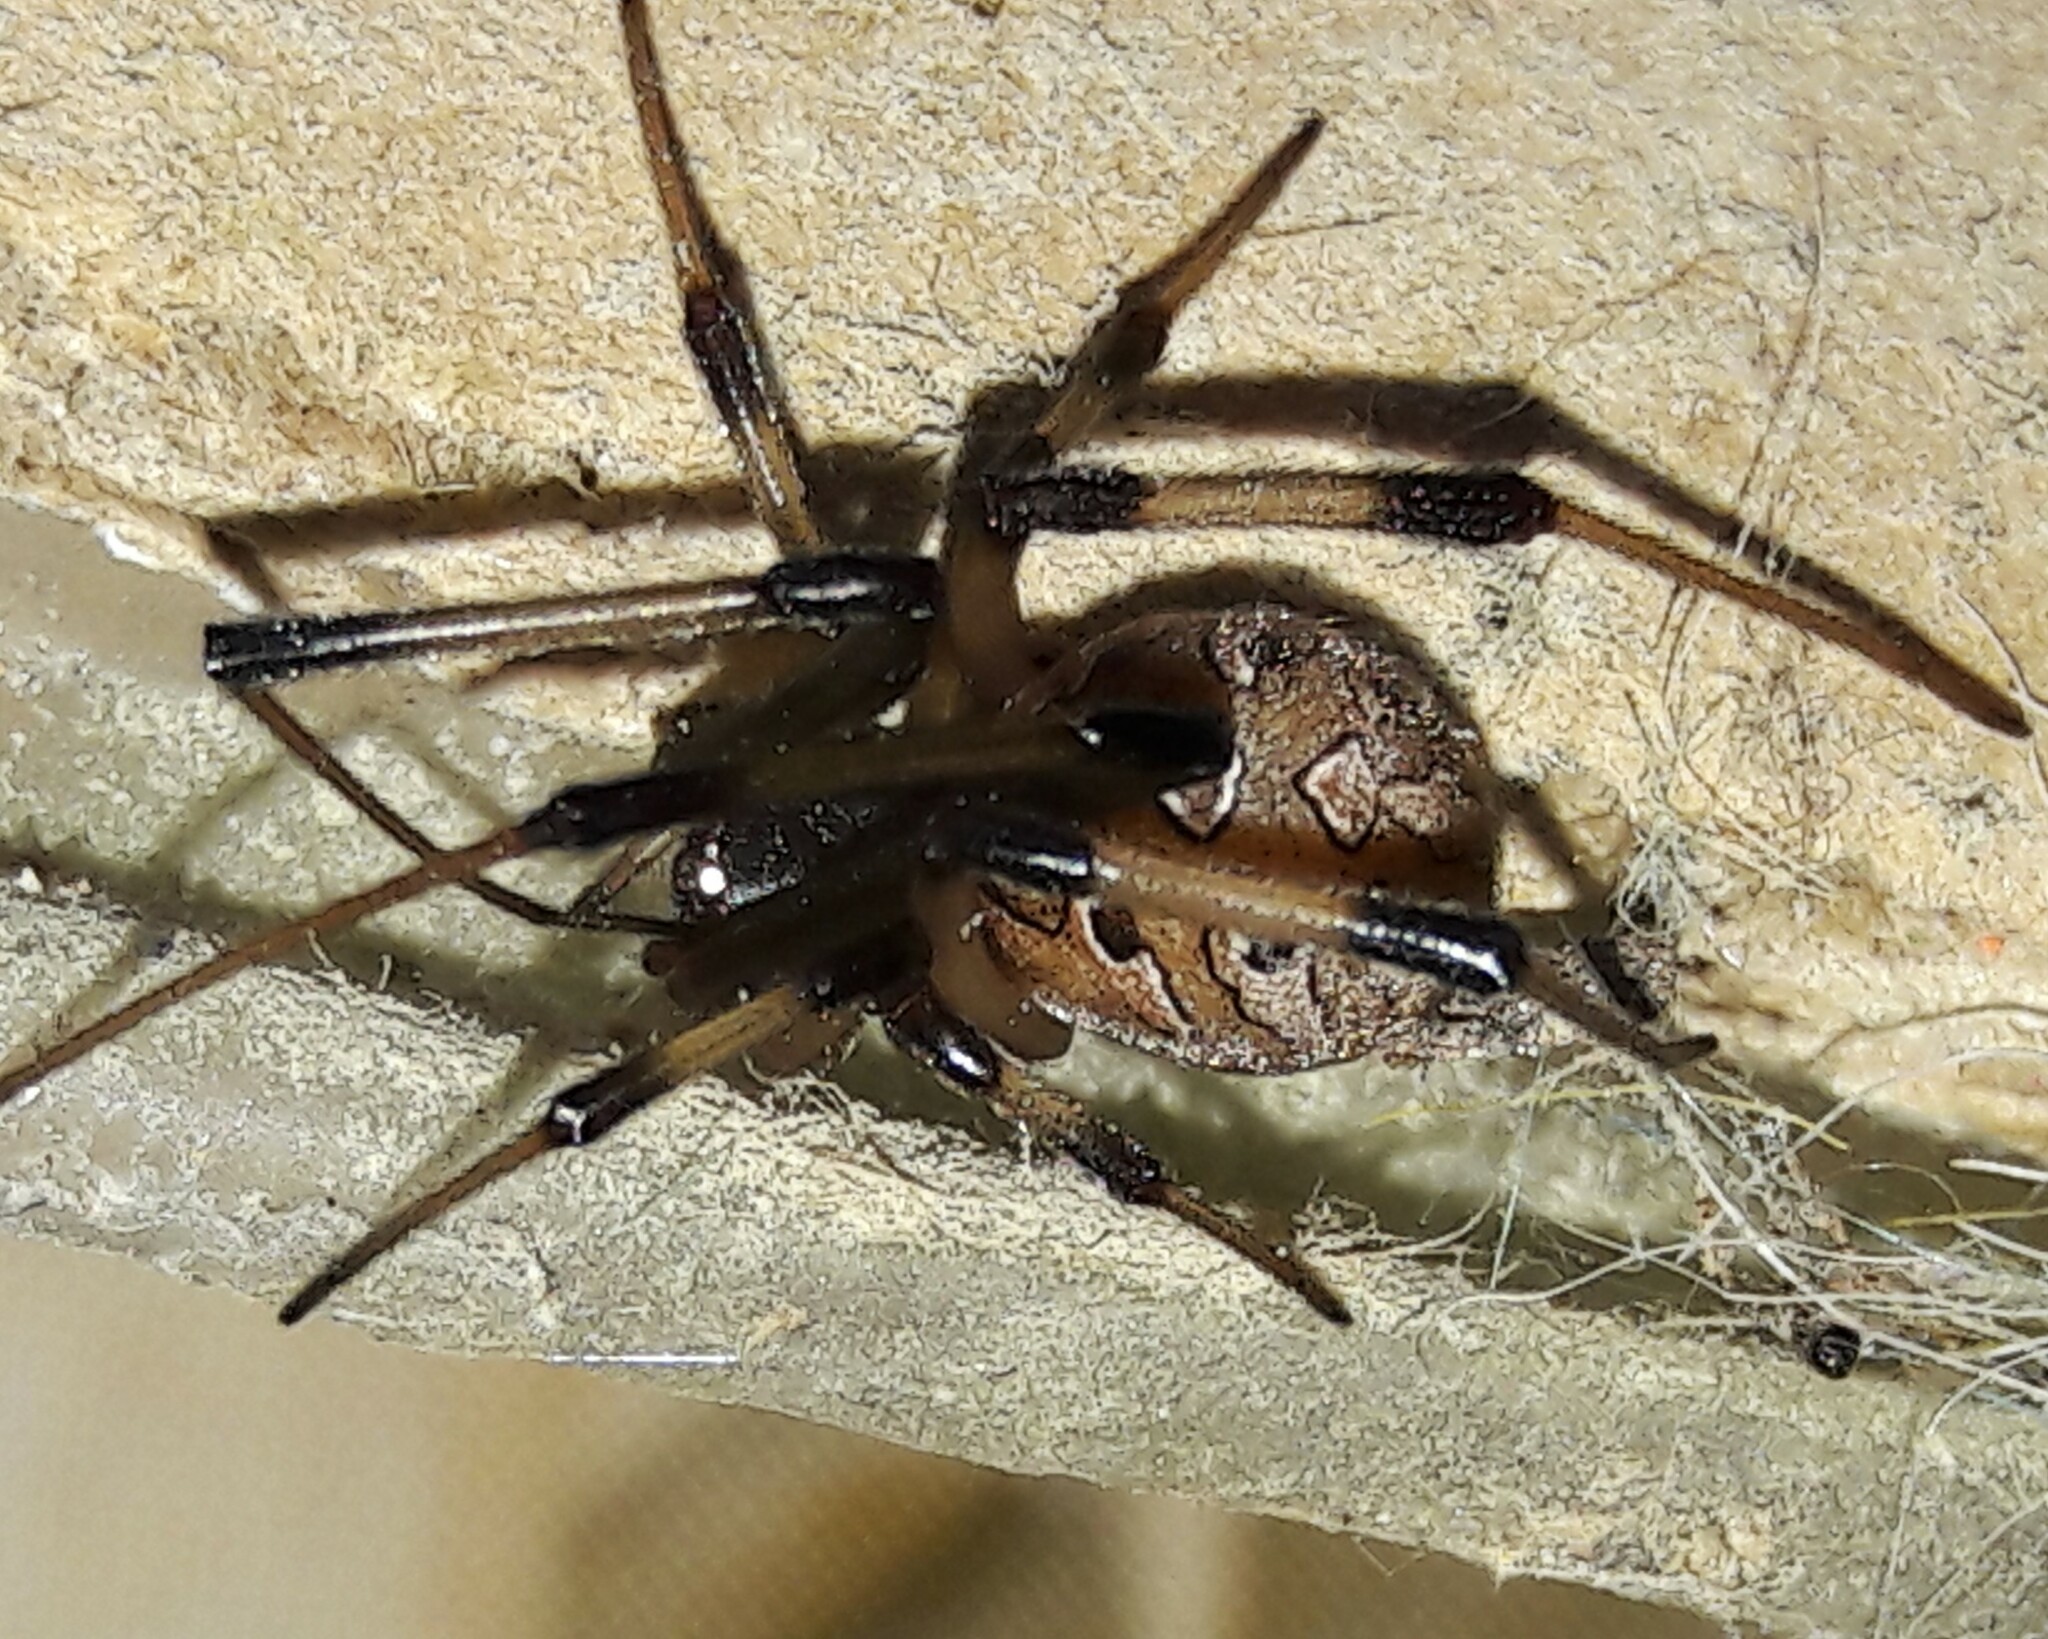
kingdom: Animalia
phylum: Arthropoda
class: Arachnida
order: Araneae
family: Theridiidae
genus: Latrodectus
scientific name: Latrodectus geometricus
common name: Brown widow spider
